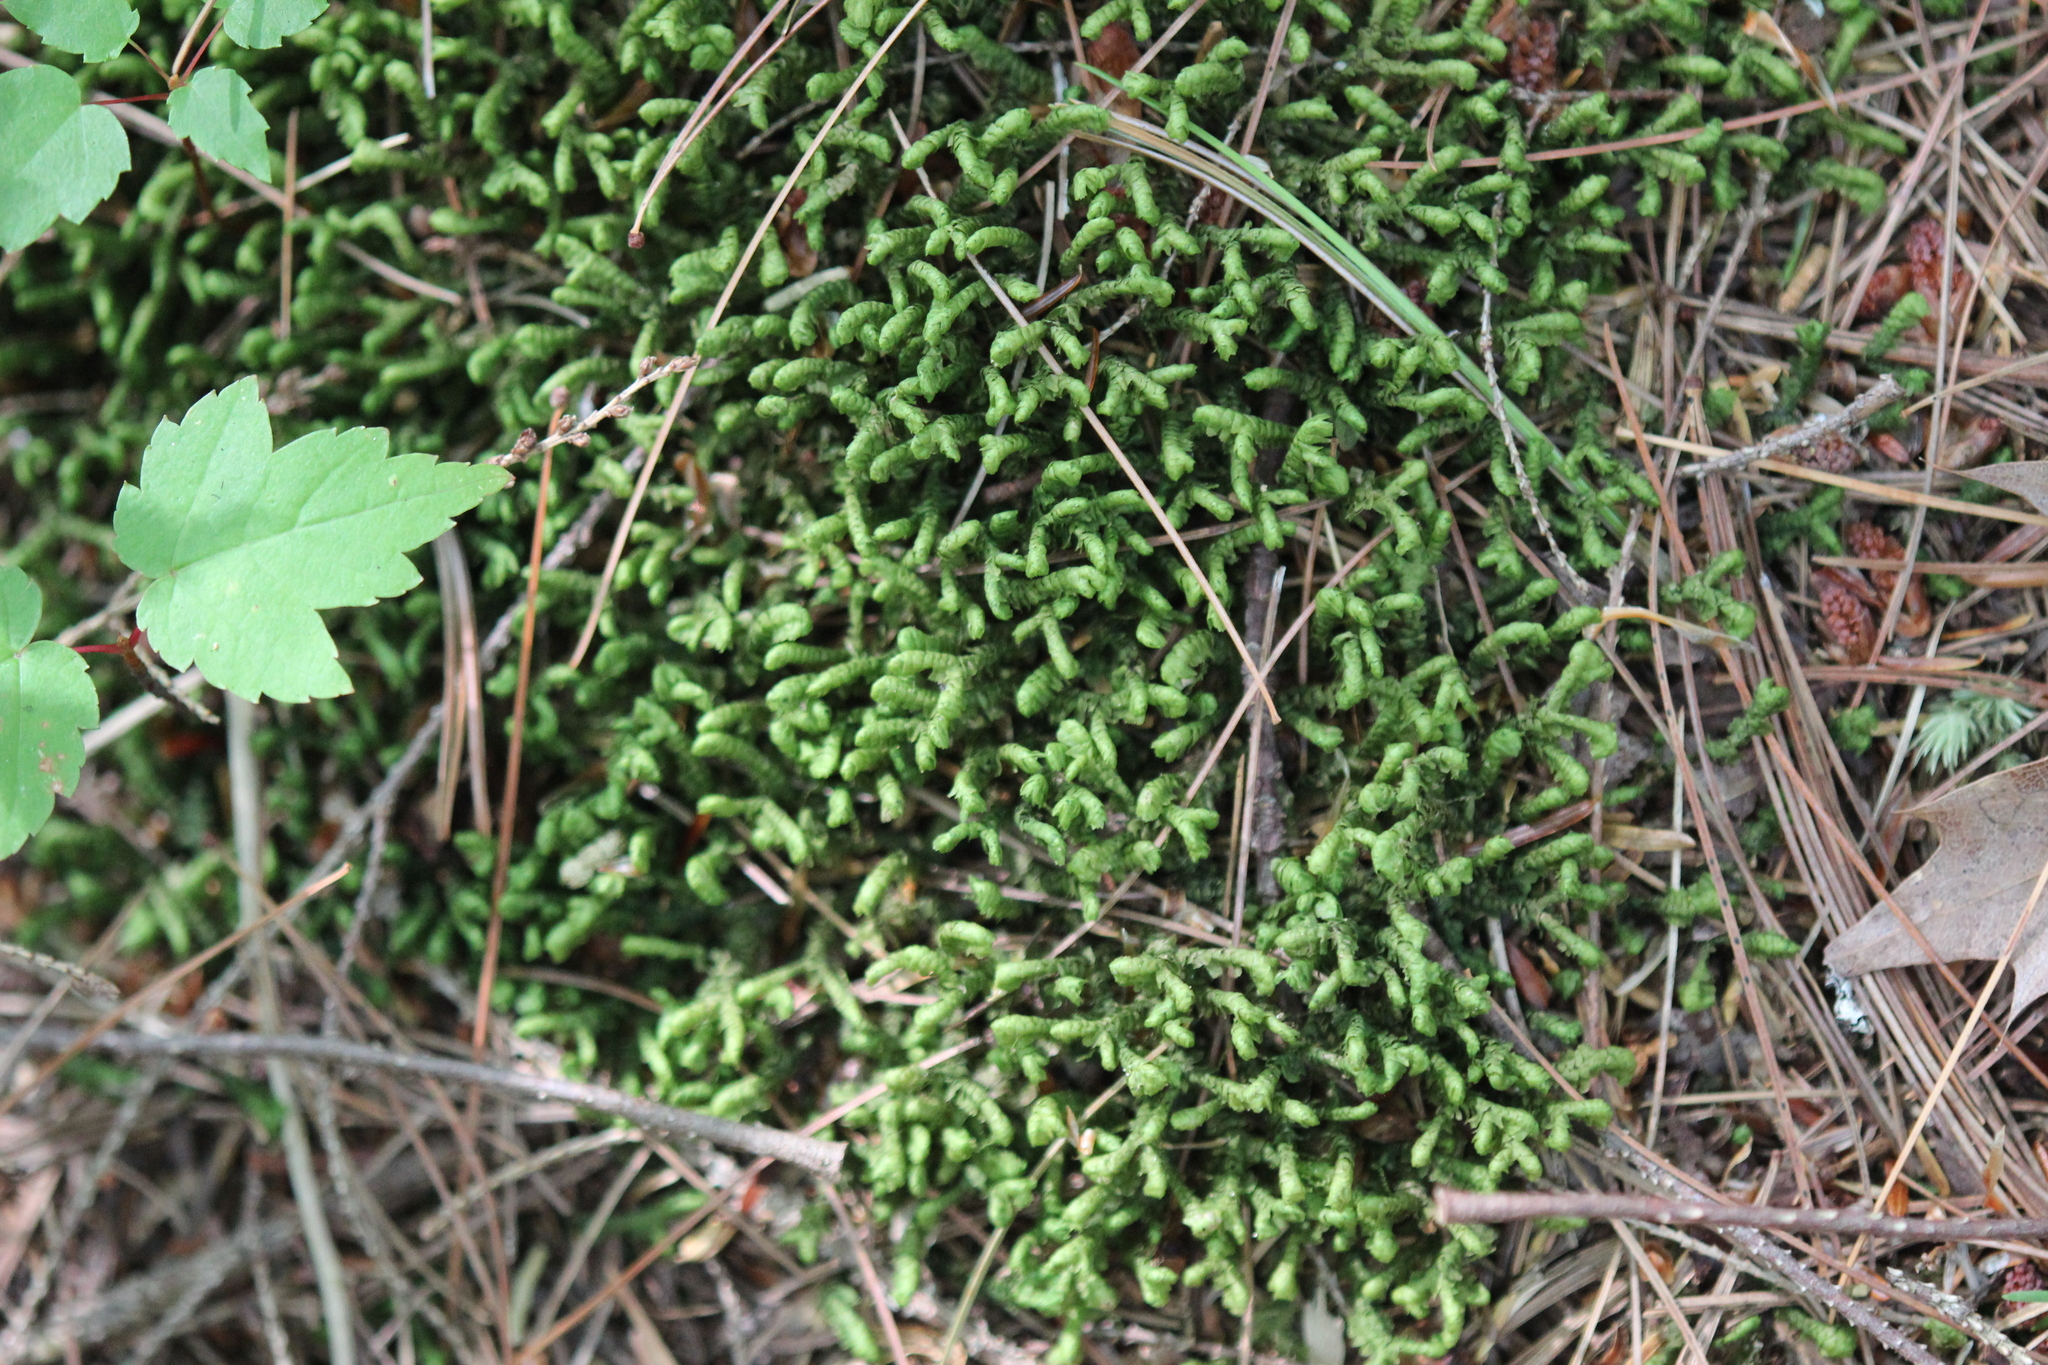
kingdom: Plantae
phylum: Marchantiophyta
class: Jungermanniopsida
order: Jungermanniales
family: Lepidoziaceae
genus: Bazzania
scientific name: Bazzania trilobata
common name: Three-lobed whipwort
